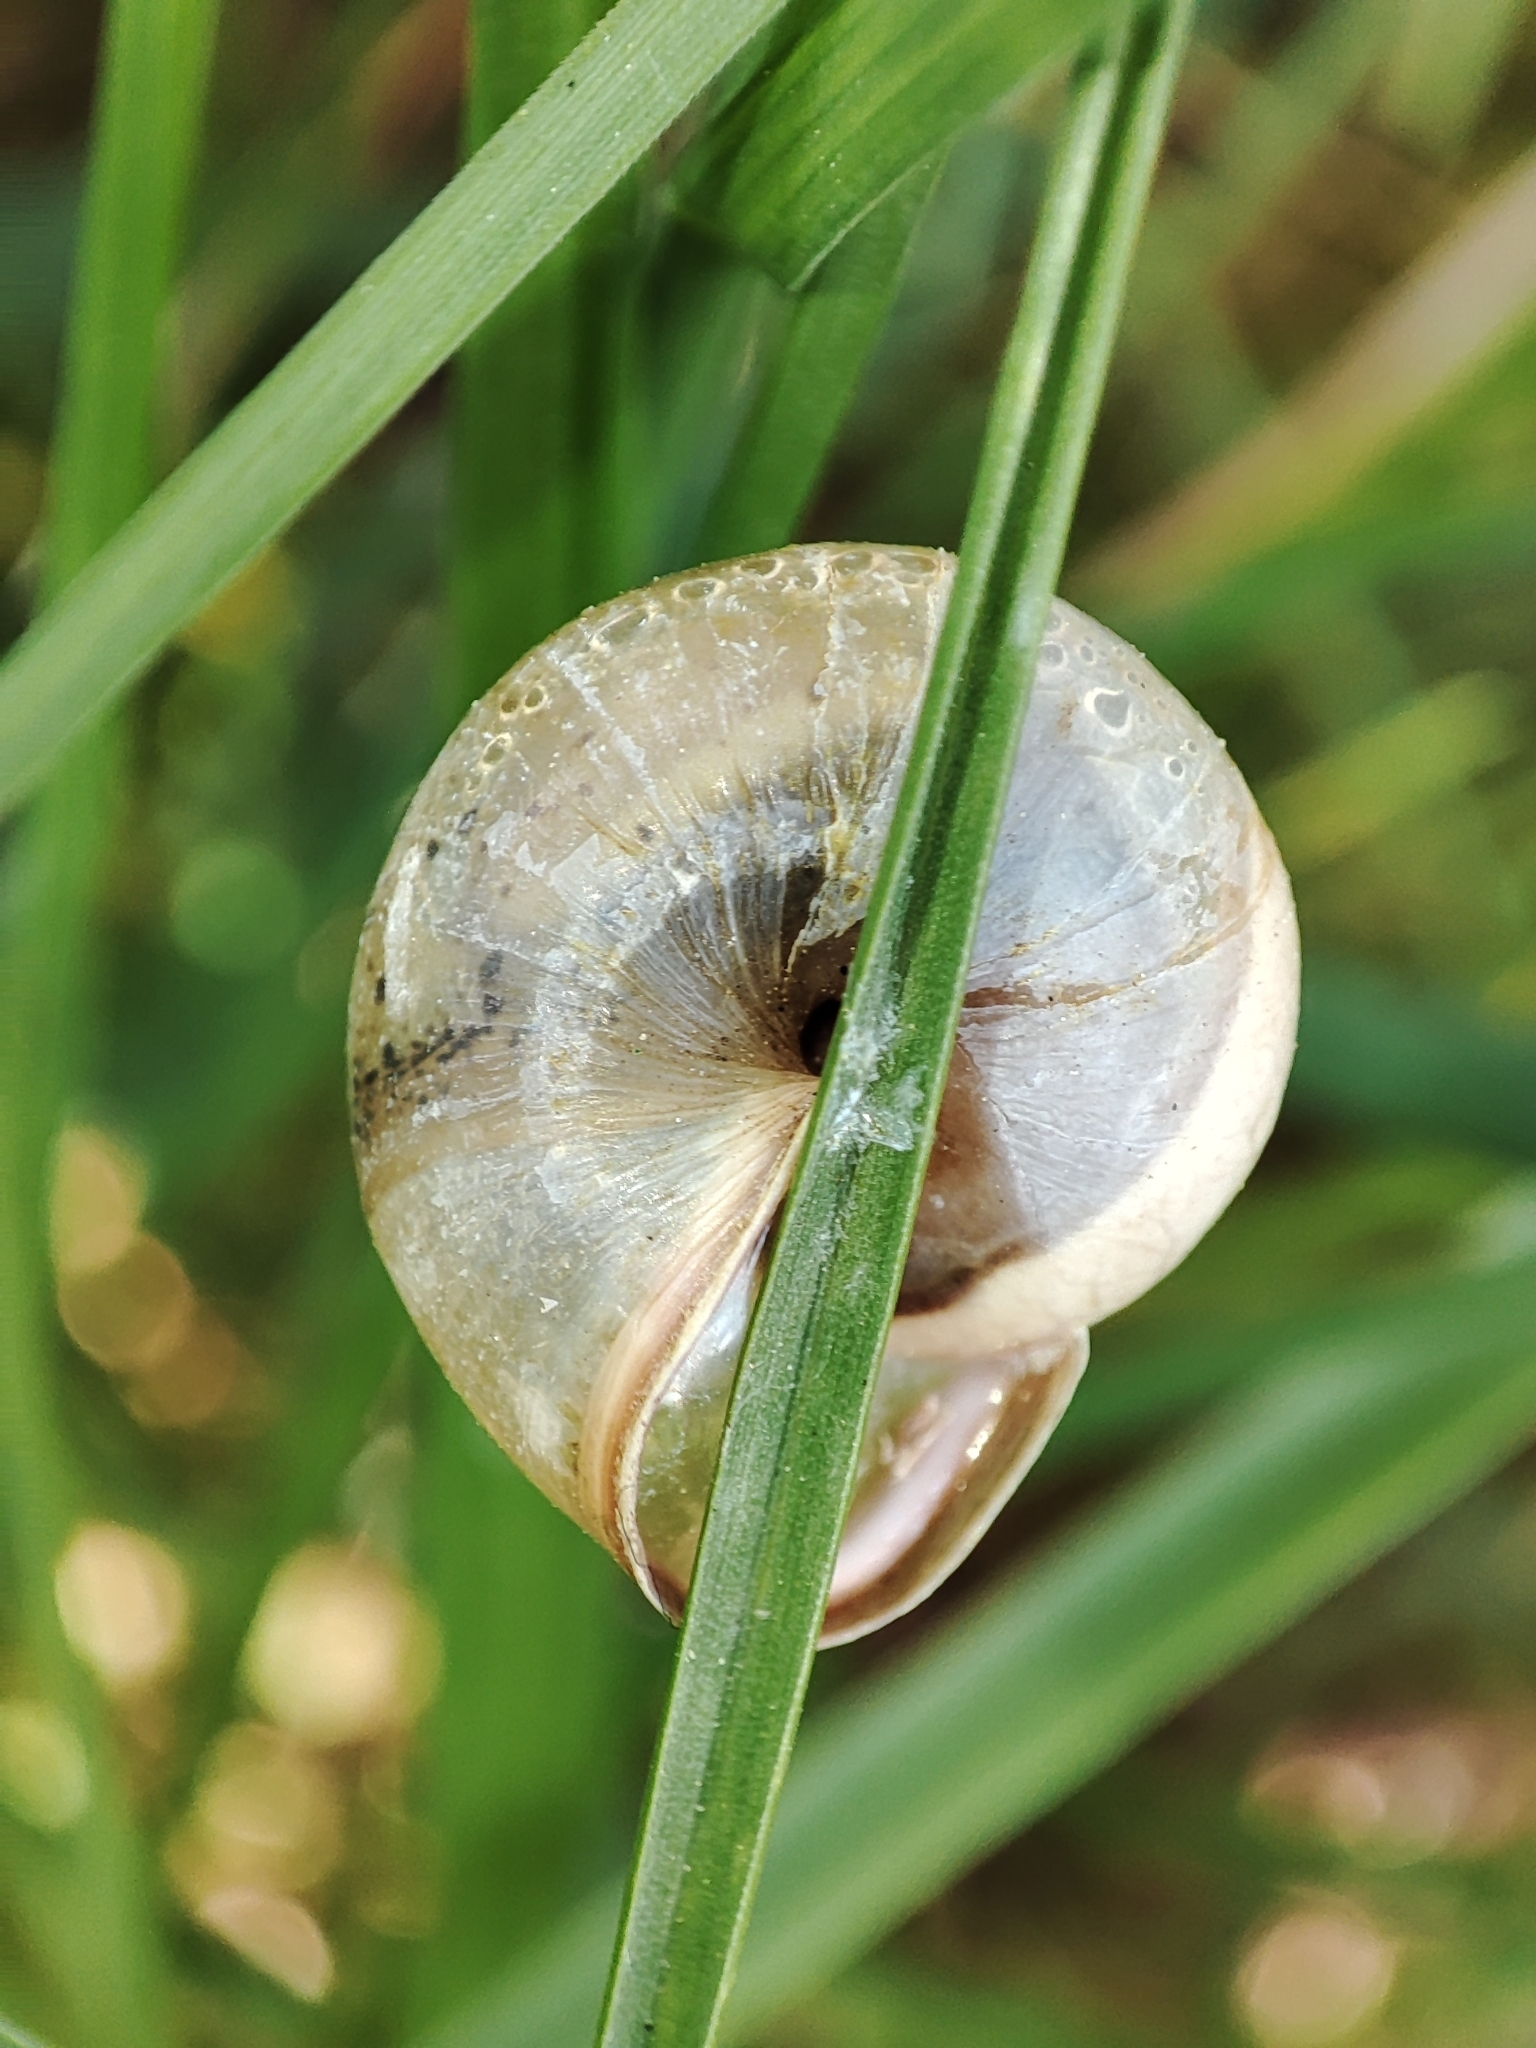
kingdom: Animalia
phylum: Mollusca
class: Gastropoda
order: Stylommatophora
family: Hygromiidae
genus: Monacha
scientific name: Monacha cartusiana
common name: Carthusian snail
